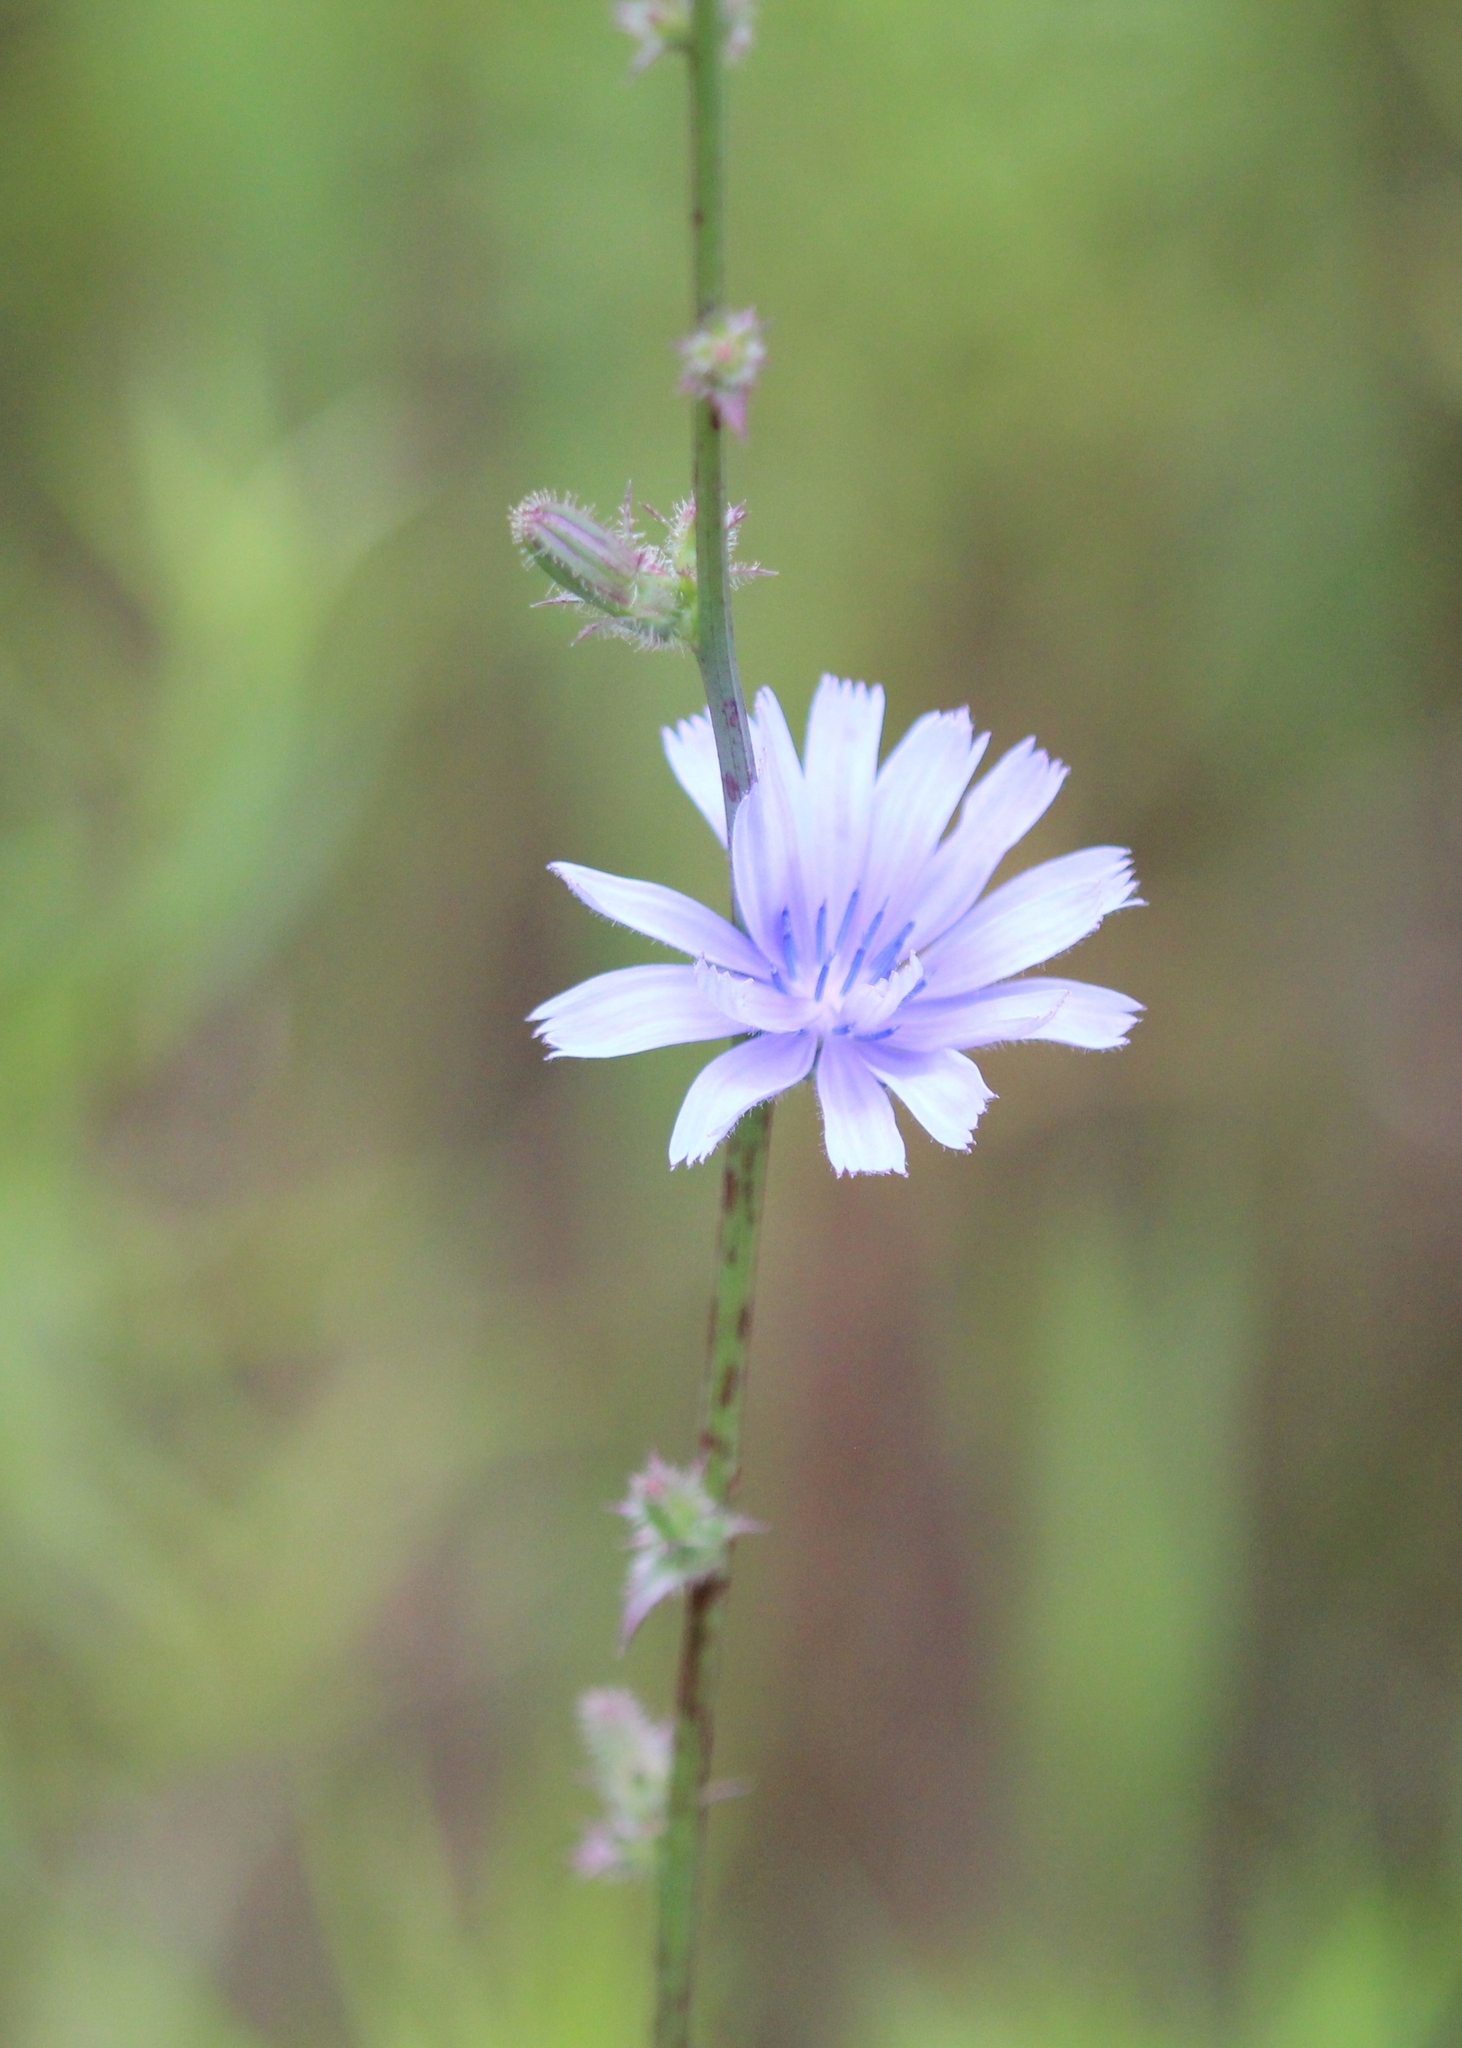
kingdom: Plantae
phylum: Tracheophyta
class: Magnoliopsida
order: Asterales
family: Asteraceae
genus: Cichorium
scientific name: Cichorium intybus
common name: Chicory
